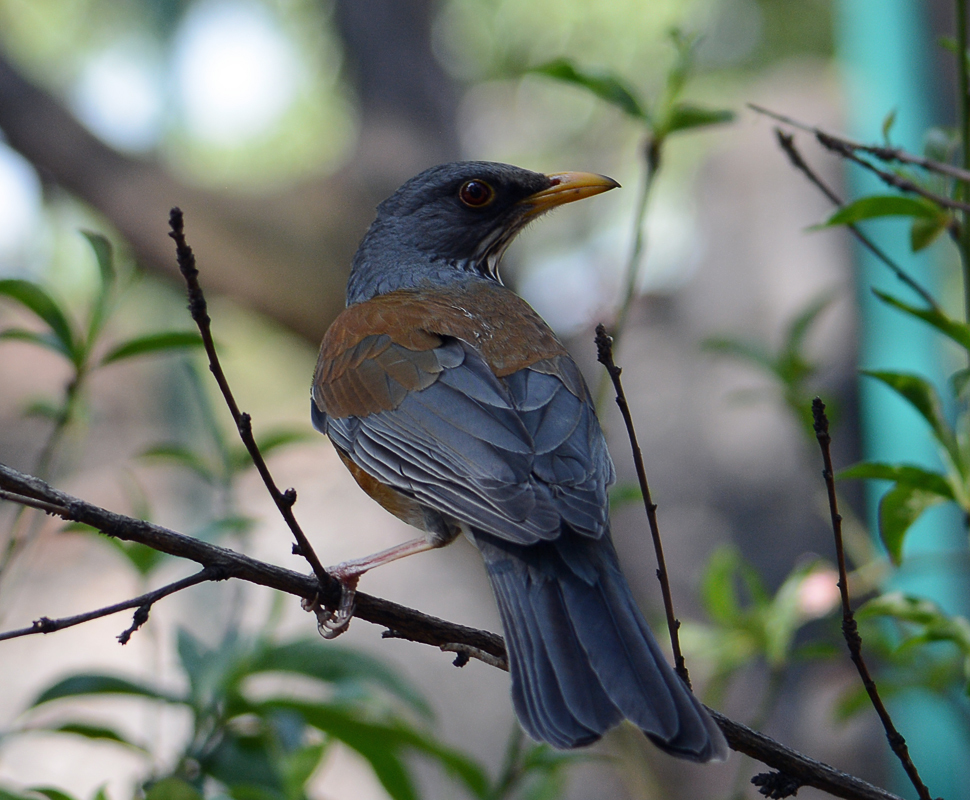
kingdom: Animalia
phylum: Chordata
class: Aves
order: Passeriformes
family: Turdidae
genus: Turdus
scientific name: Turdus rufopalliatus
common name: Rufous-backed robin
